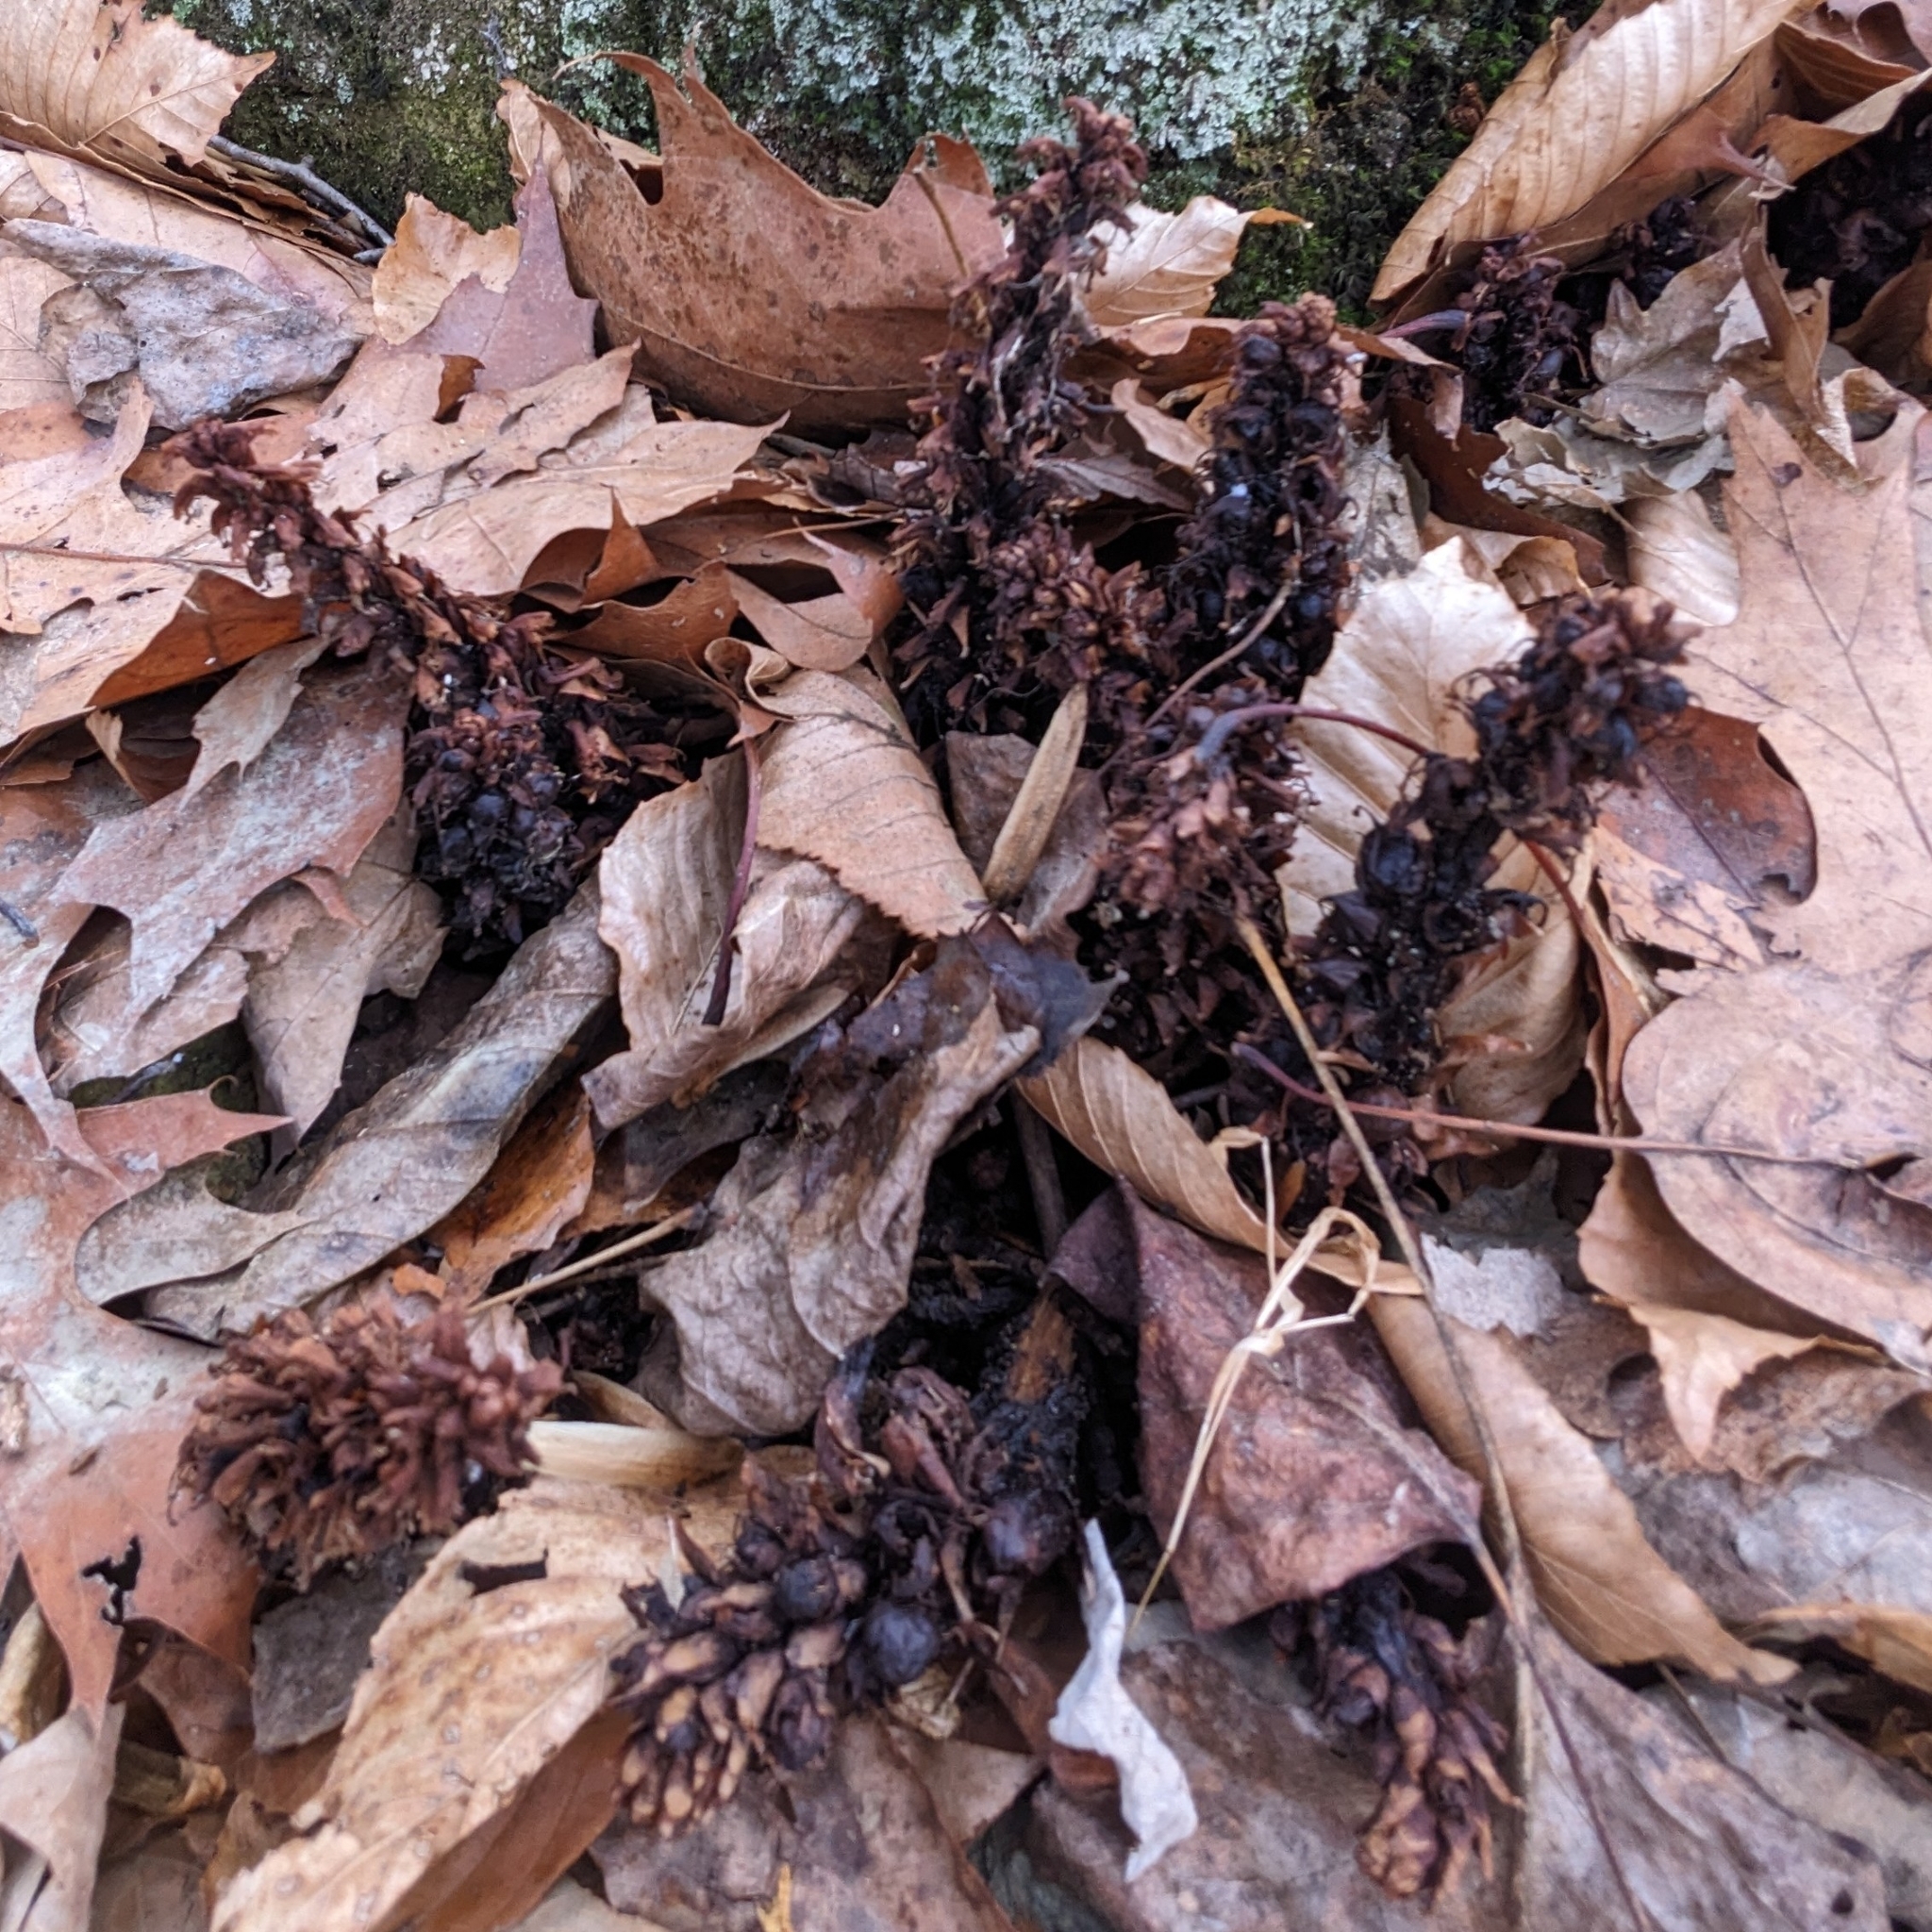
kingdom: Plantae
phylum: Tracheophyta
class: Magnoliopsida
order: Lamiales
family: Orobanchaceae
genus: Conopholis
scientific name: Conopholis americana
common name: American cancer-root
